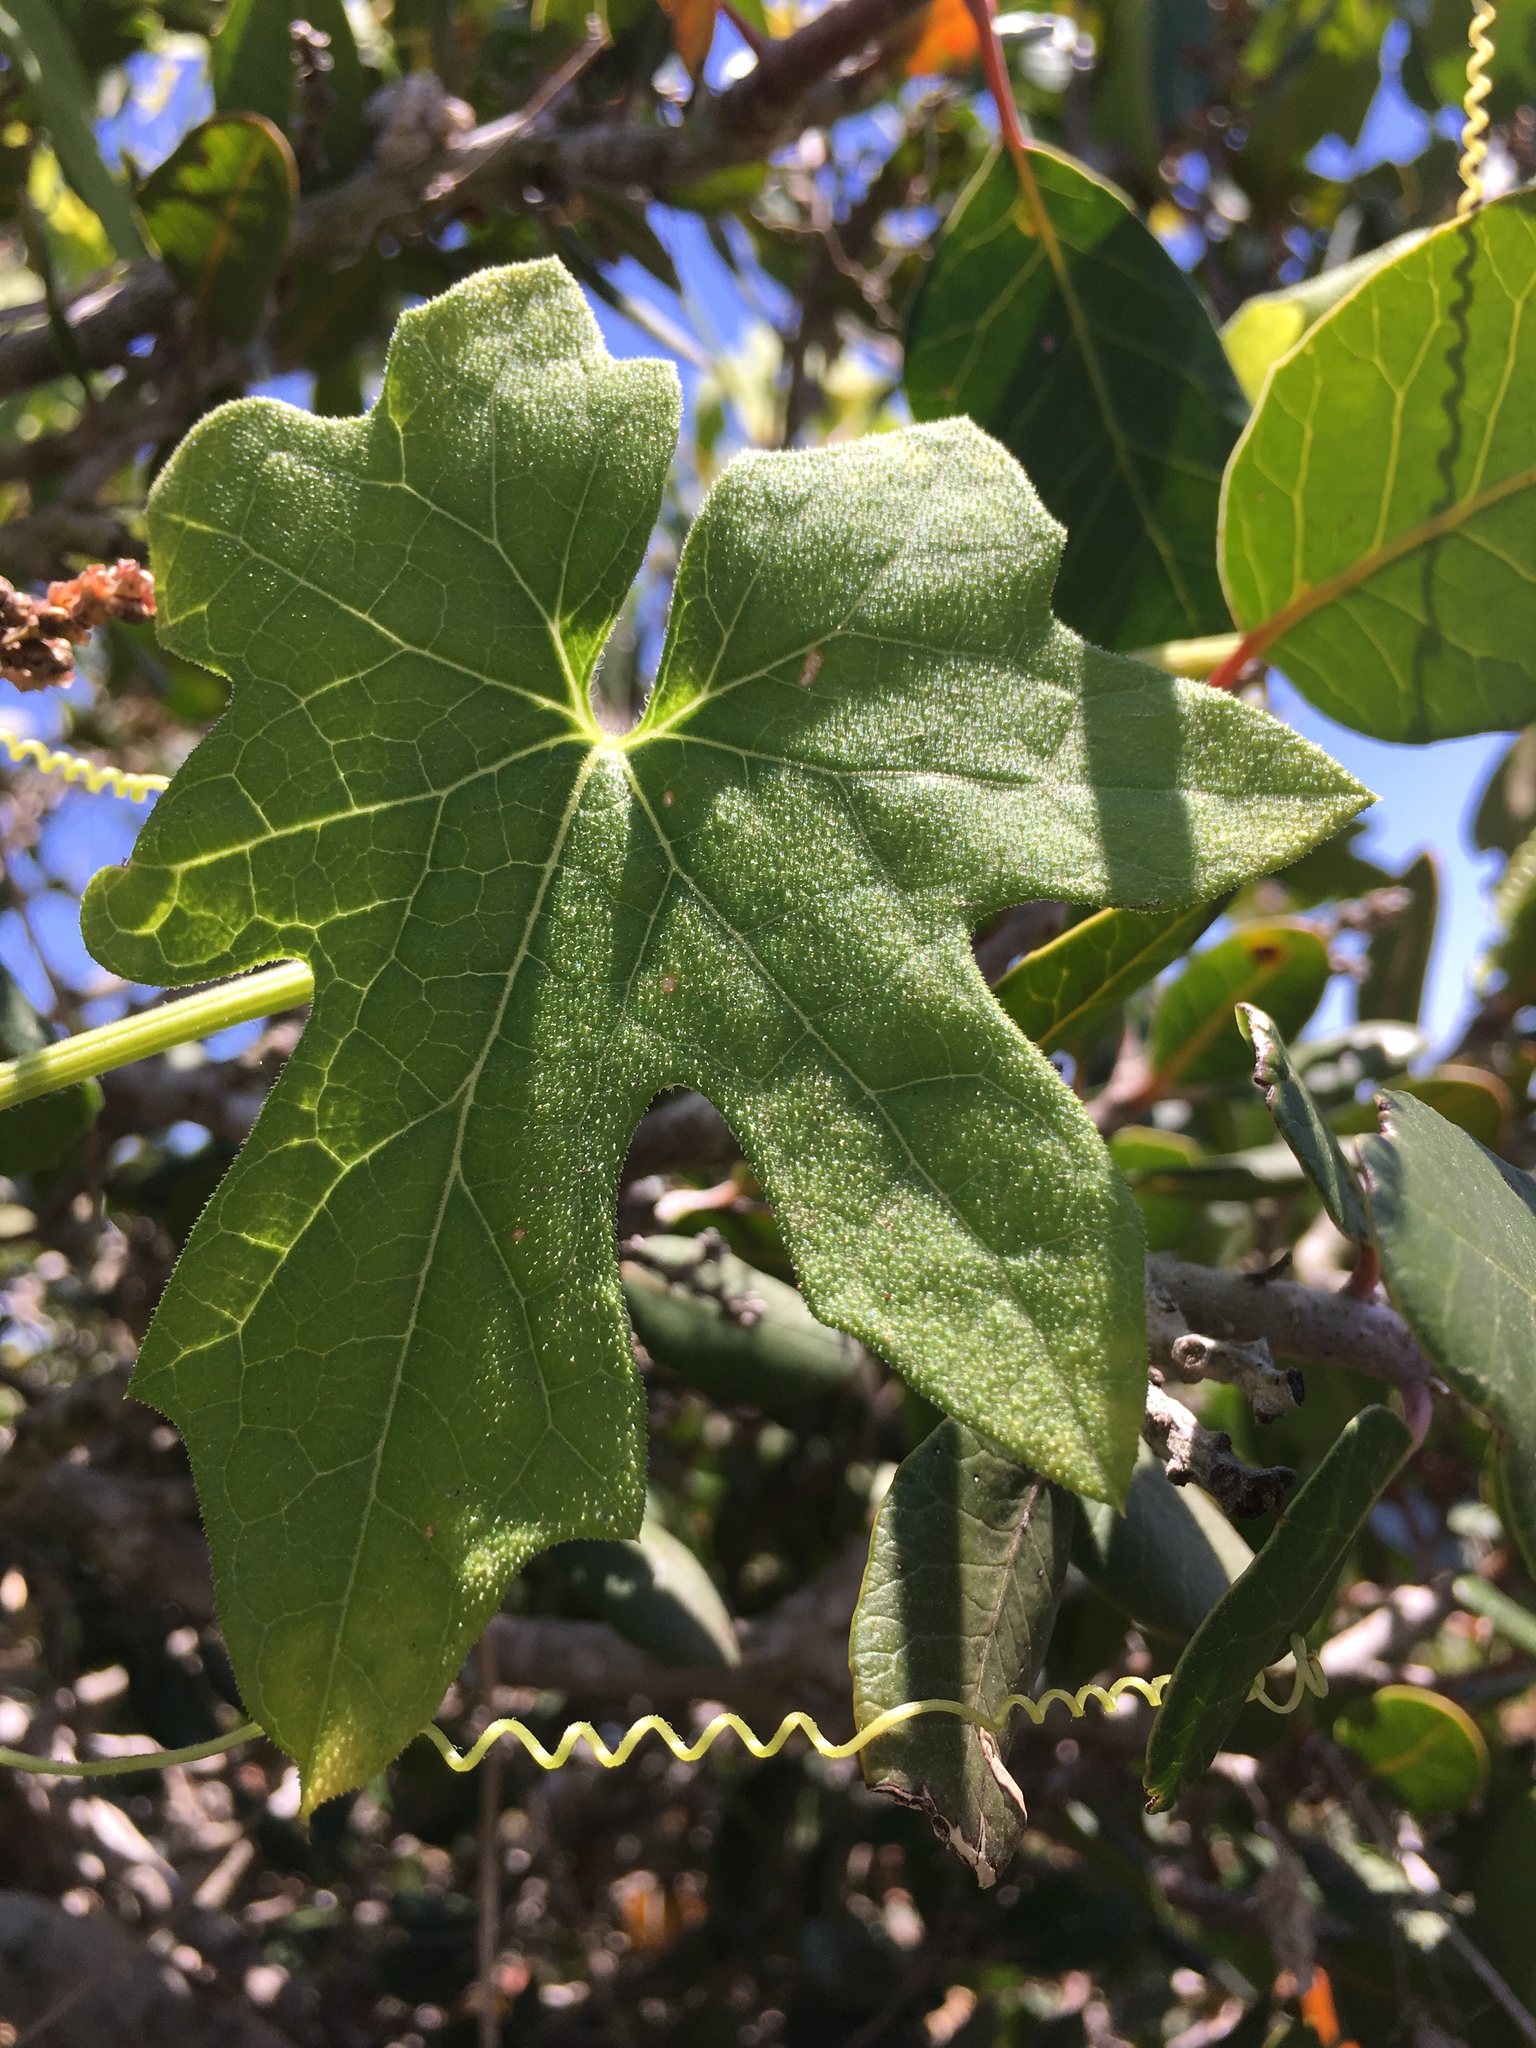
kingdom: Plantae
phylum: Tracheophyta
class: Magnoliopsida
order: Cucurbitales
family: Cucurbitaceae
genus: Marah
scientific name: Marah macrocarpa
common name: Cucamonga manroot
